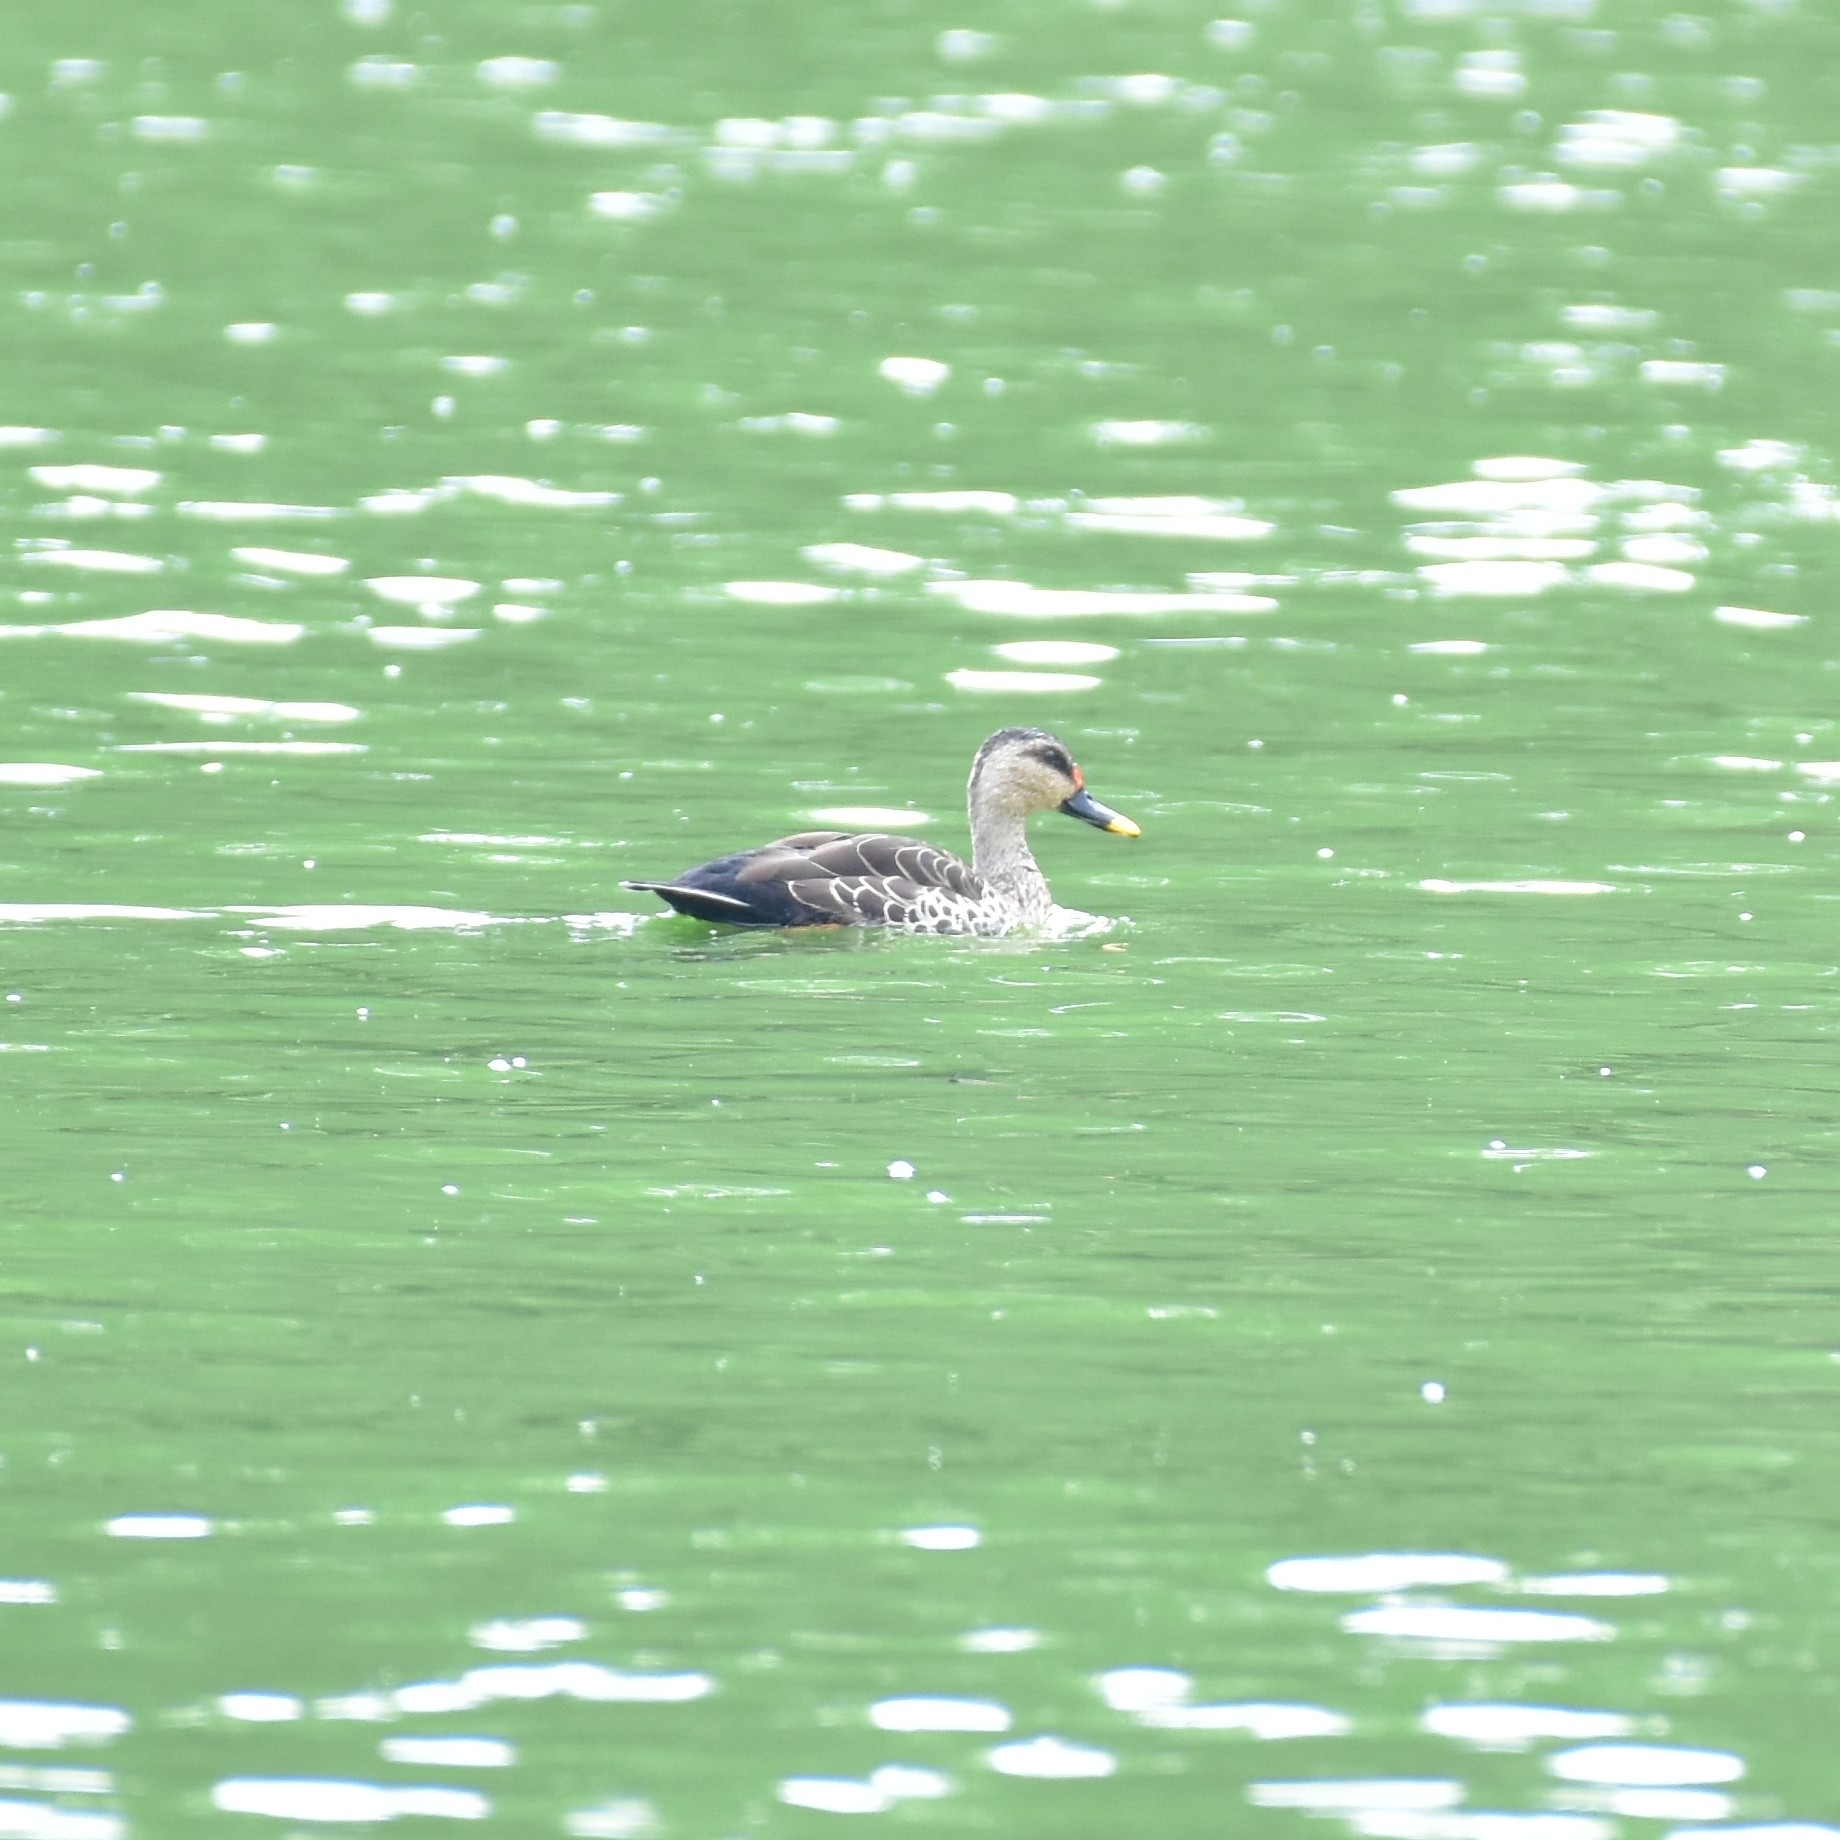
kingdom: Animalia
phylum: Chordata
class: Aves
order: Anseriformes
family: Anatidae
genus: Anas
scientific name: Anas poecilorhyncha
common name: Indian spot-billed duck
